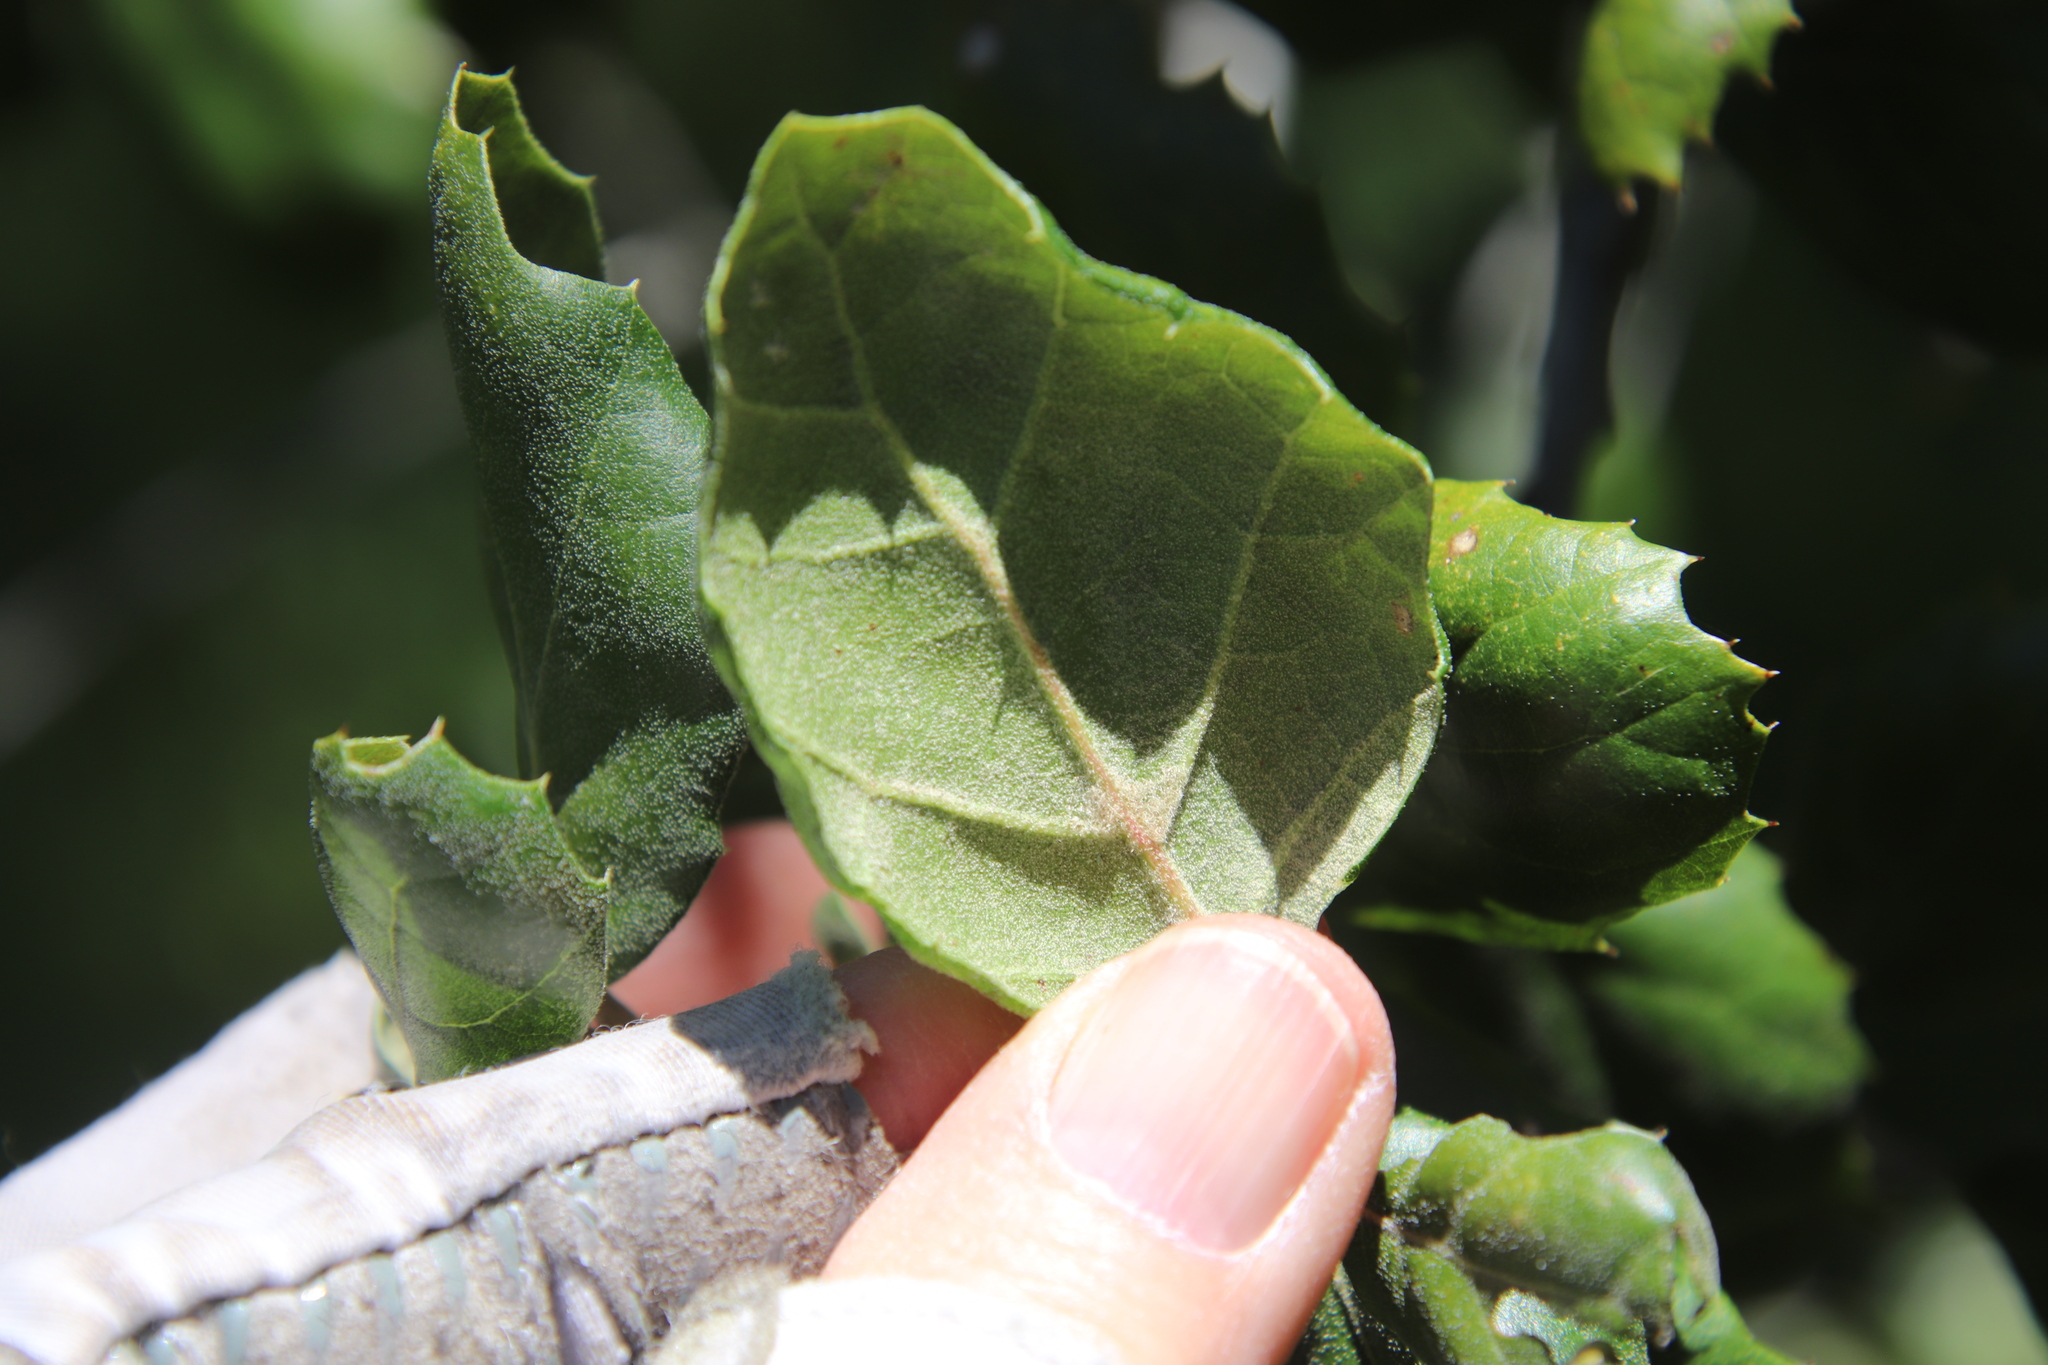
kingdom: Plantae
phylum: Tracheophyta
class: Magnoliopsida
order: Fagales
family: Fagaceae
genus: Quercus
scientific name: Quercus agrifolia
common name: California live oak
